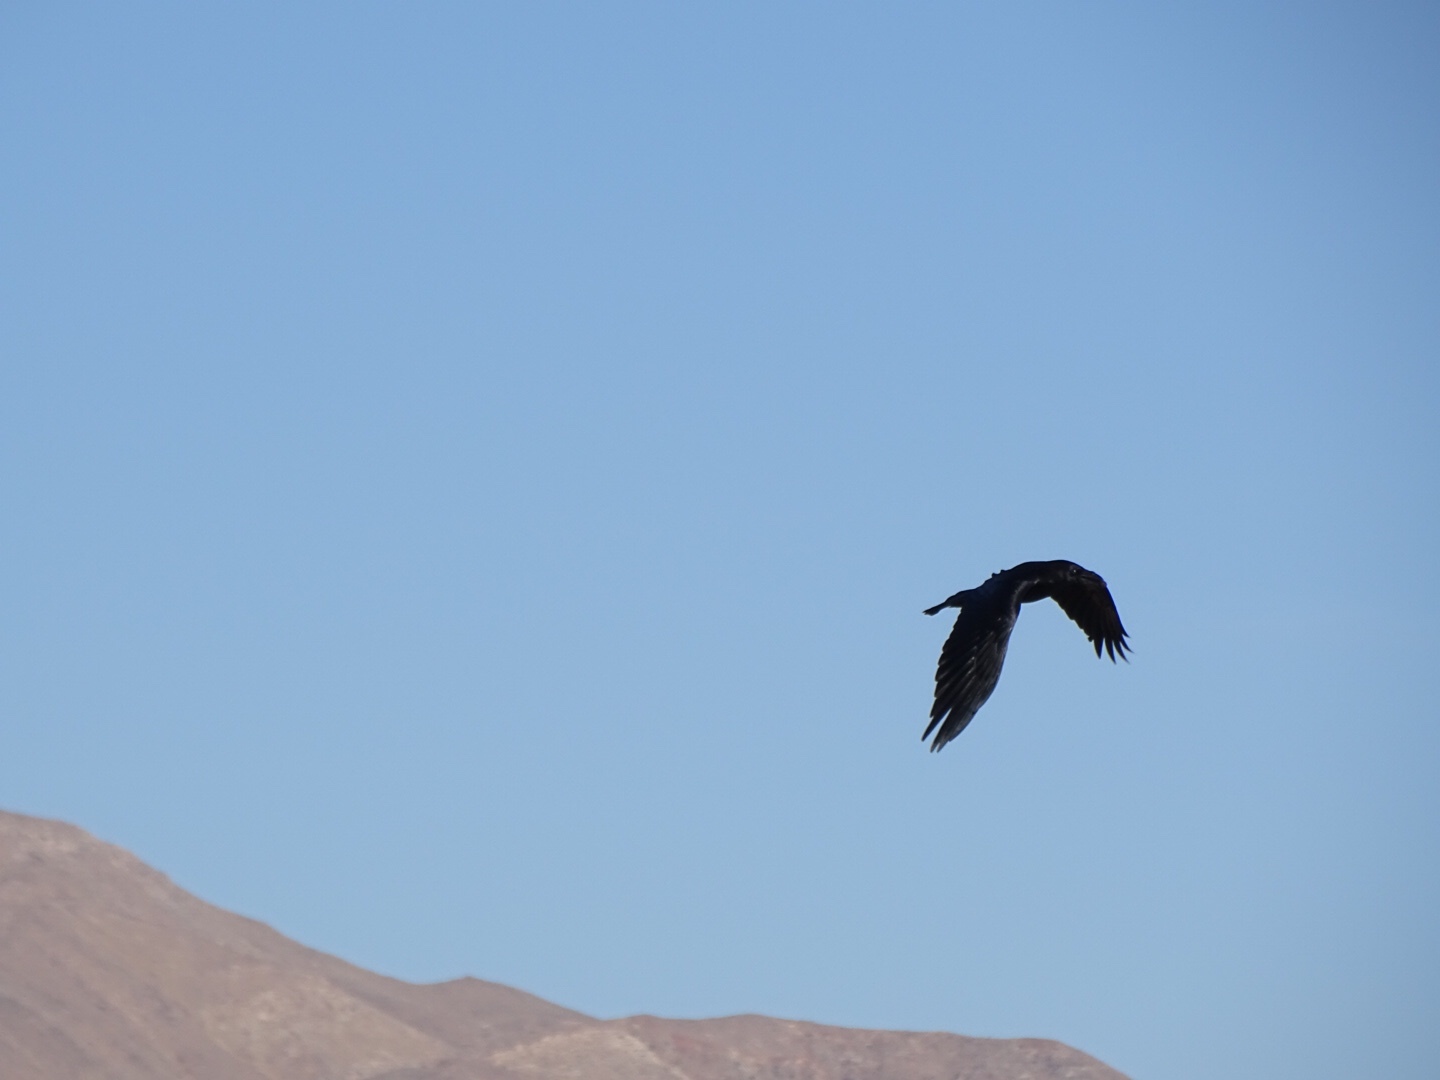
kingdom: Animalia
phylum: Chordata
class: Aves
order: Passeriformes
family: Corvidae
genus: Corvus
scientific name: Corvus corax
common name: Common raven
